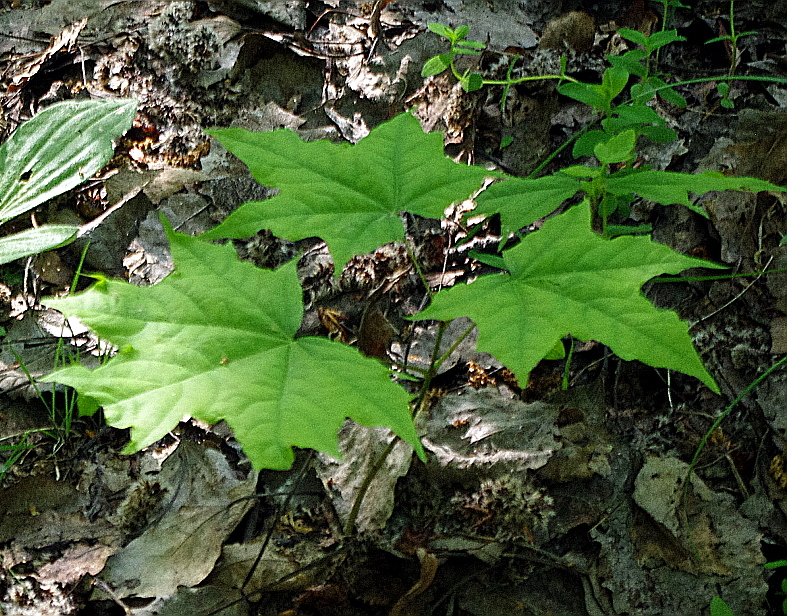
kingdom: Plantae
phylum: Tracheophyta
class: Magnoliopsida
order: Sapindales
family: Sapindaceae
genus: Acer
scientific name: Acer platanoides
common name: Norway maple
